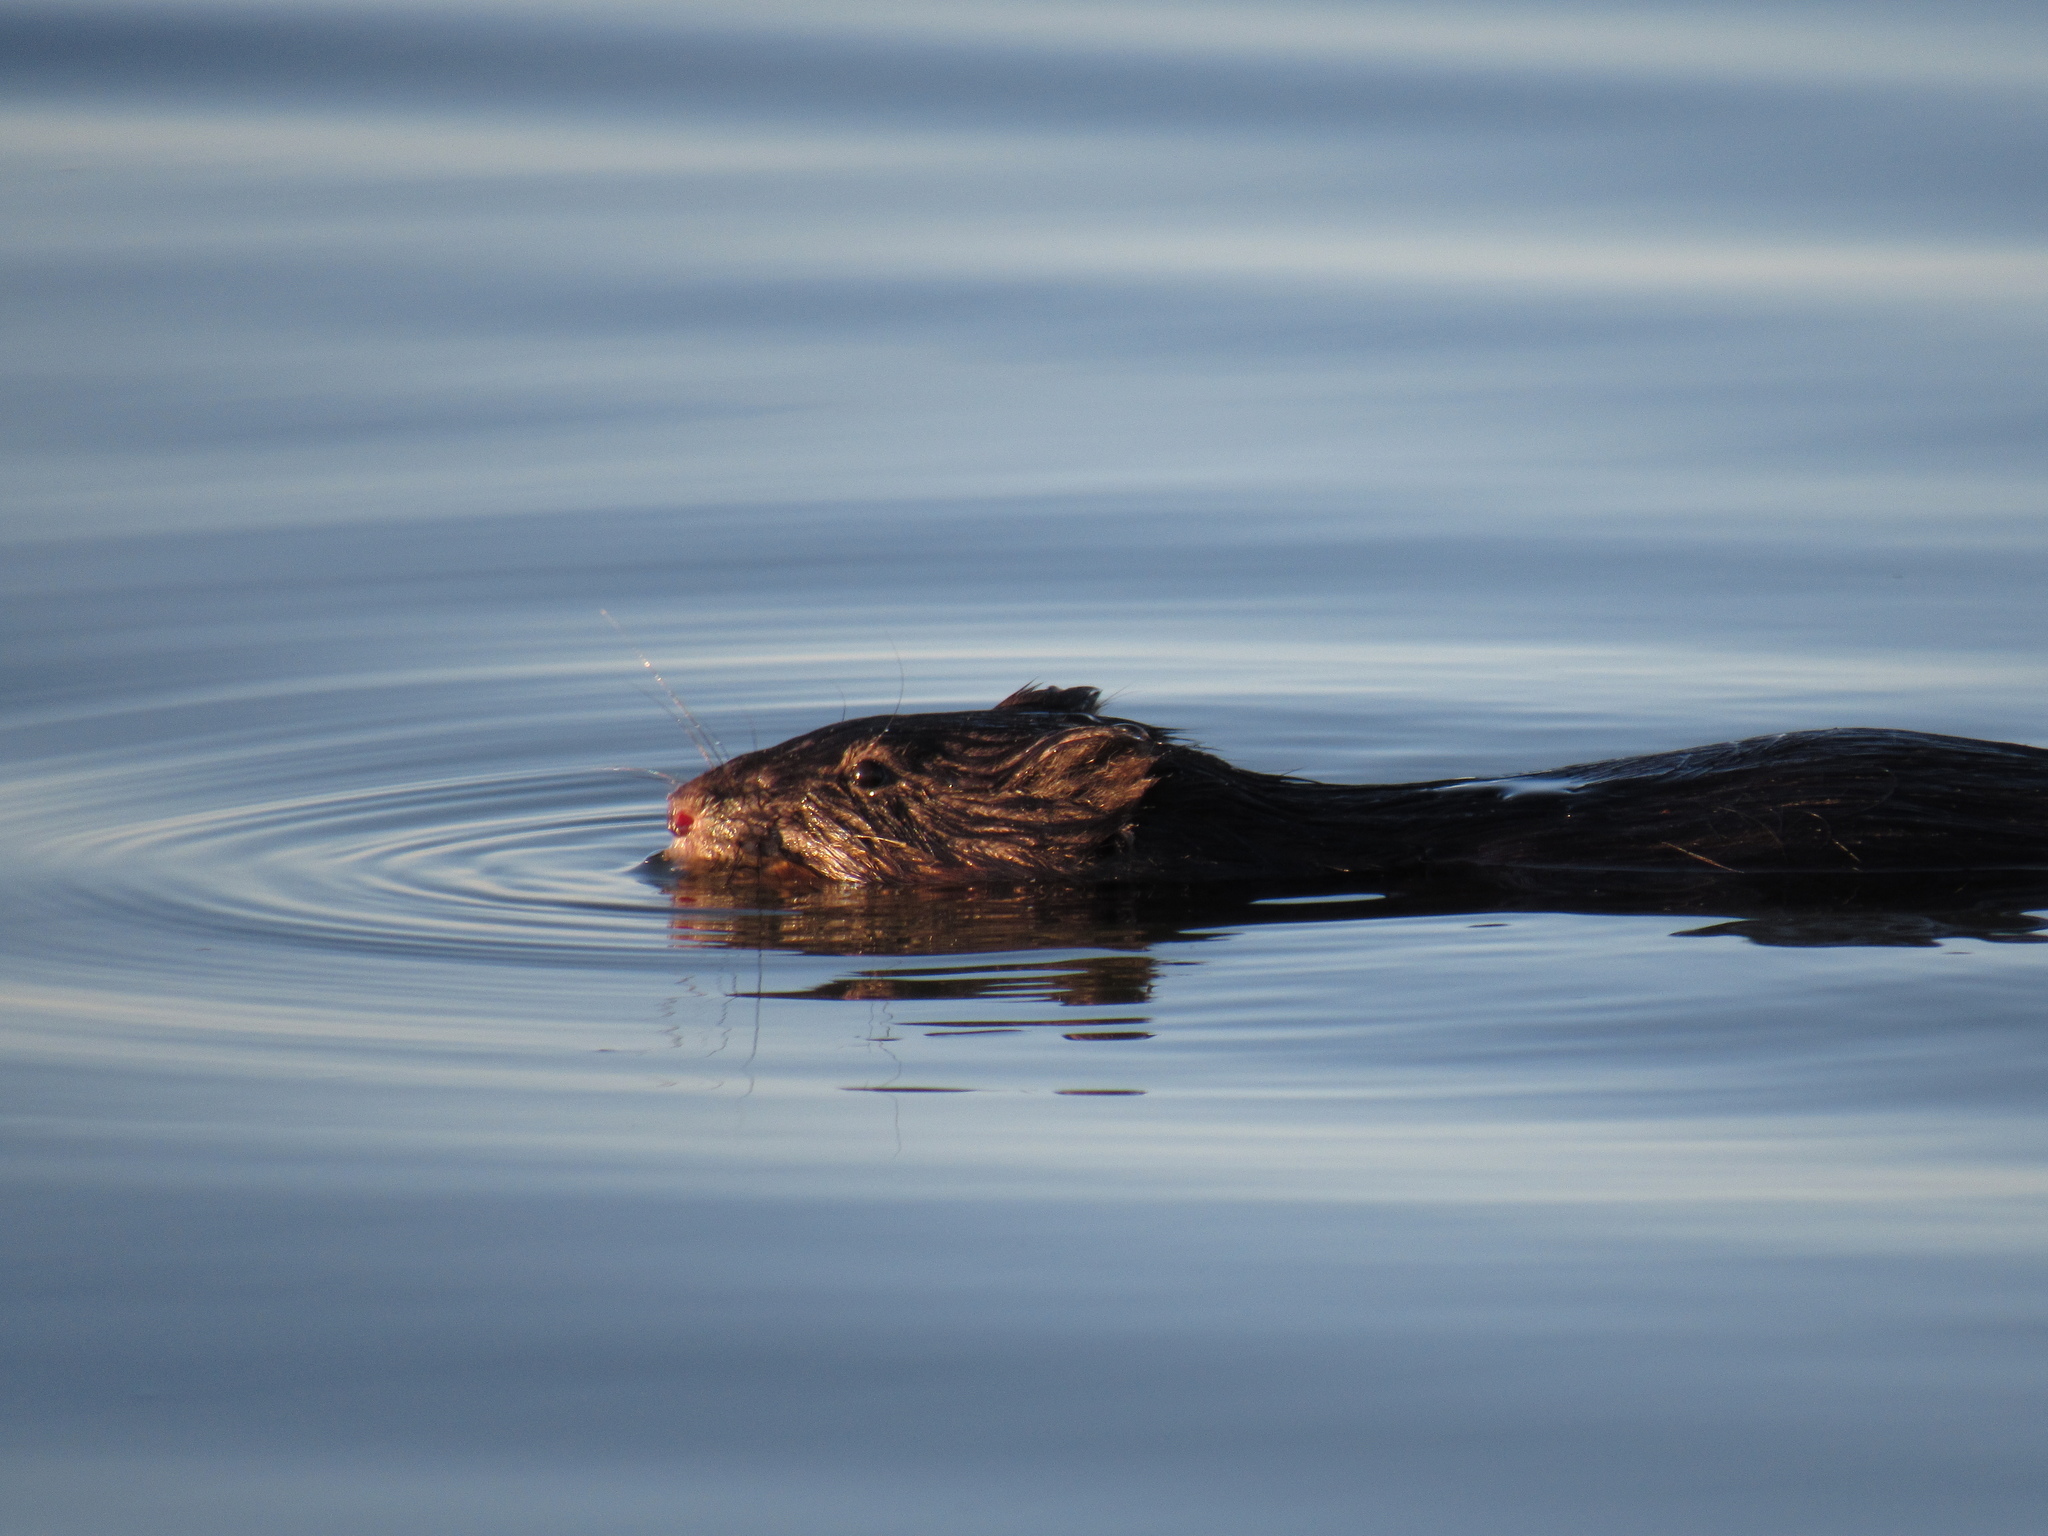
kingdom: Animalia
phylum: Chordata
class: Mammalia
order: Rodentia
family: Cricetidae
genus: Ondatra
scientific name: Ondatra zibethicus
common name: Muskrat
